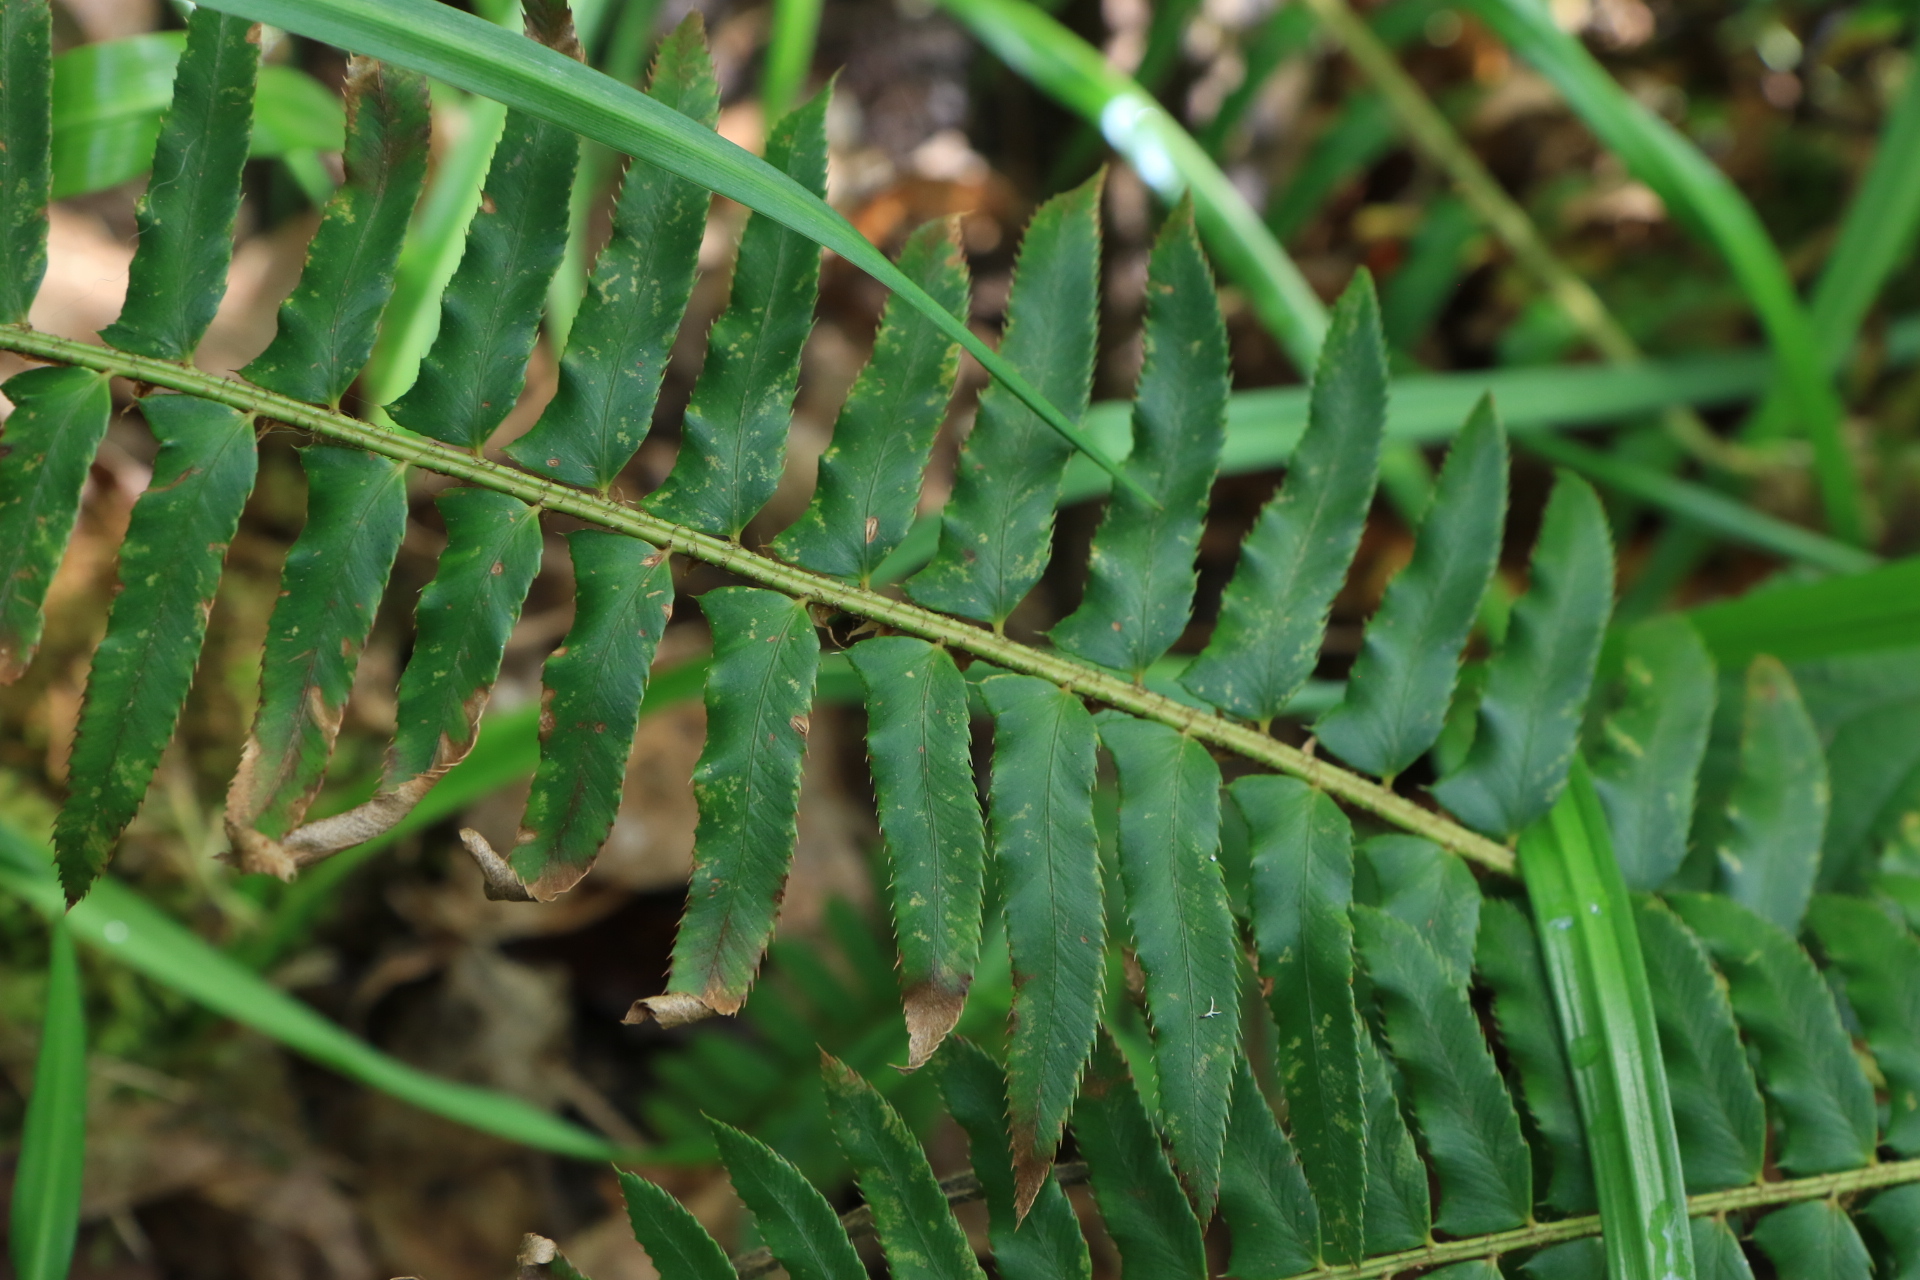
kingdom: Plantae
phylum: Tracheophyta
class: Polypodiopsida
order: Polypodiales
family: Dryopteridaceae
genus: Polystichum
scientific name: Polystichum munitum
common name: Western sword-fern
